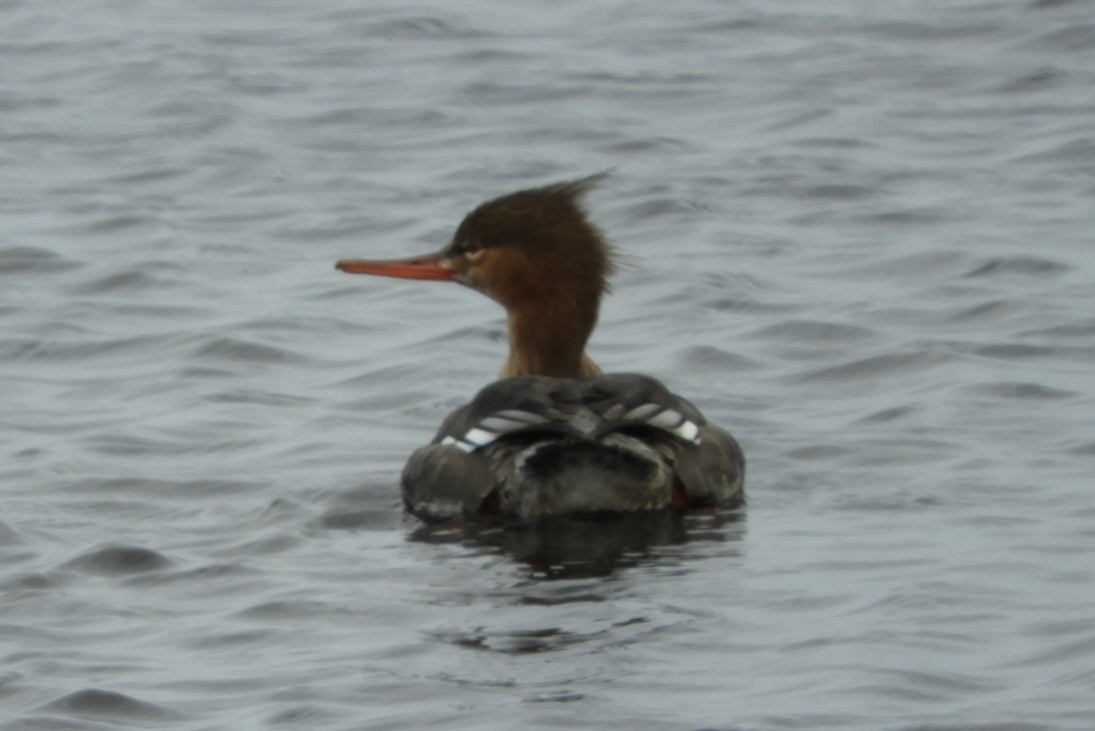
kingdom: Animalia
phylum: Chordata
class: Aves
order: Anseriformes
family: Anatidae
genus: Mergus
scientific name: Mergus serrator
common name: Red-breasted merganser
